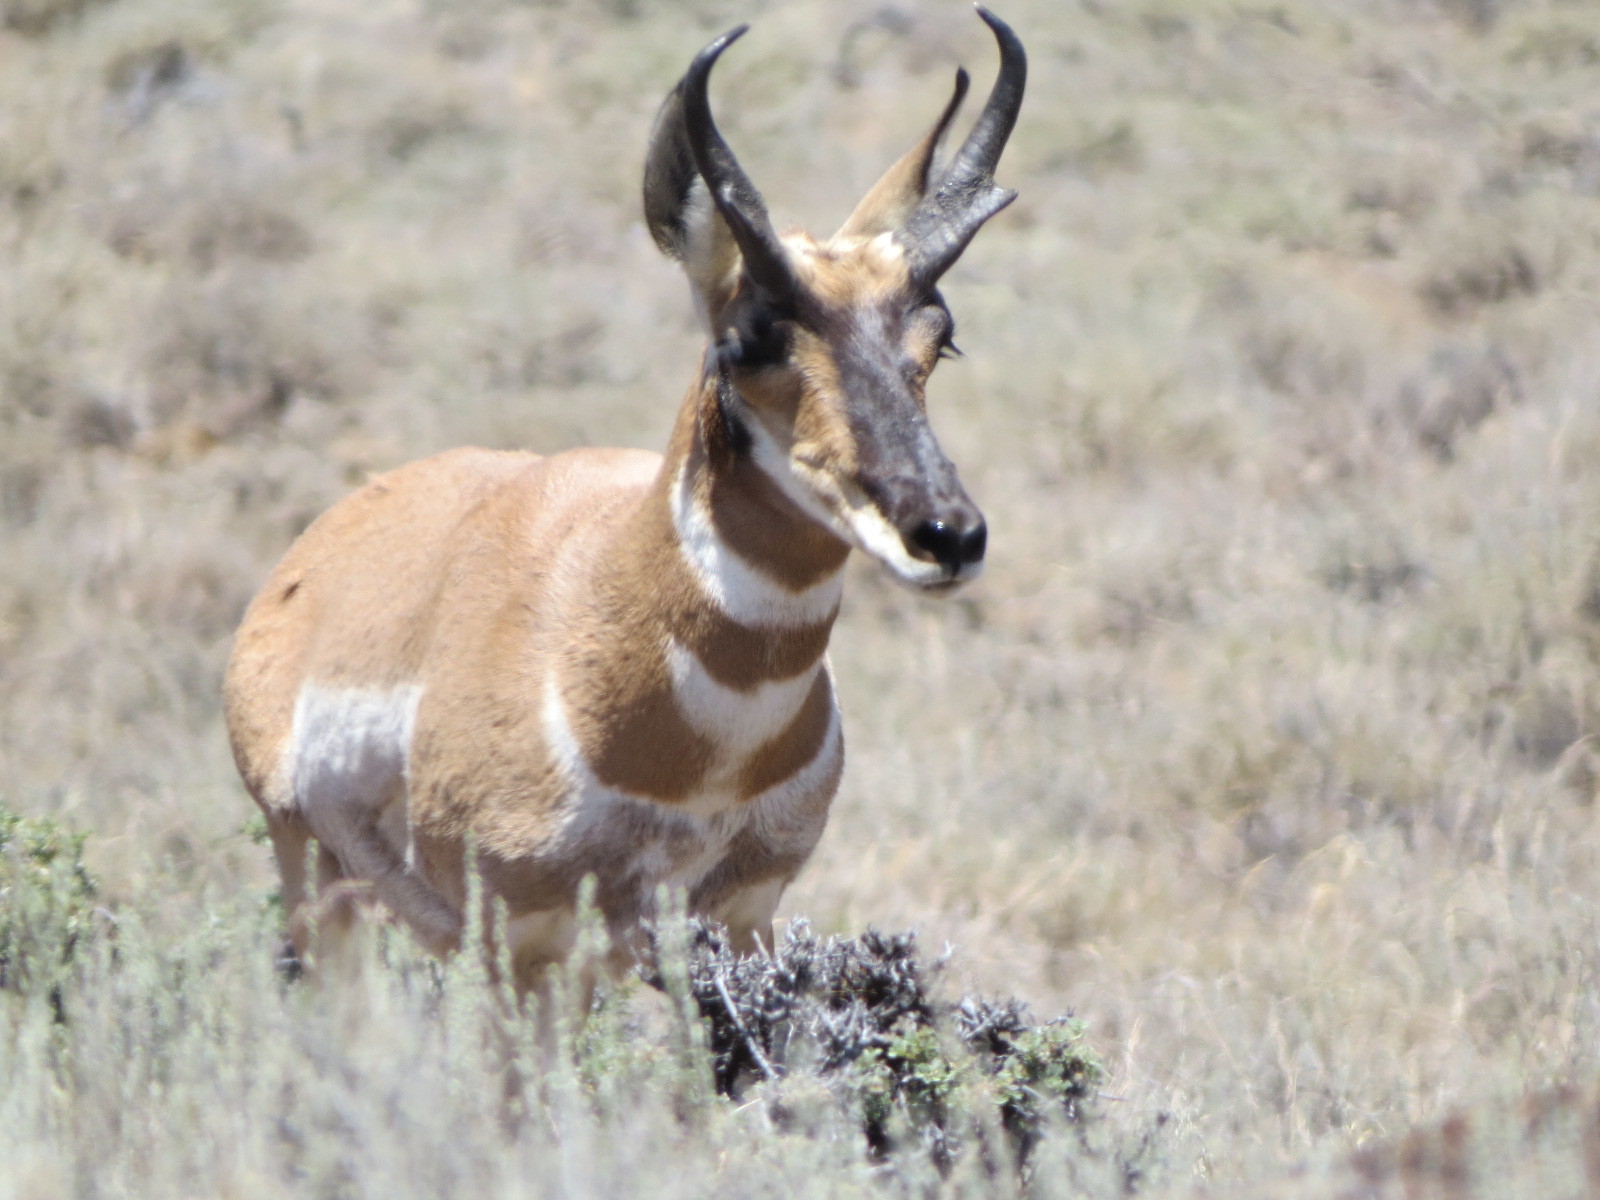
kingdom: Animalia
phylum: Chordata
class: Mammalia
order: Artiodactyla
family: Antilocapridae
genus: Antilocapra
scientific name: Antilocapra americana
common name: Pronghorn
